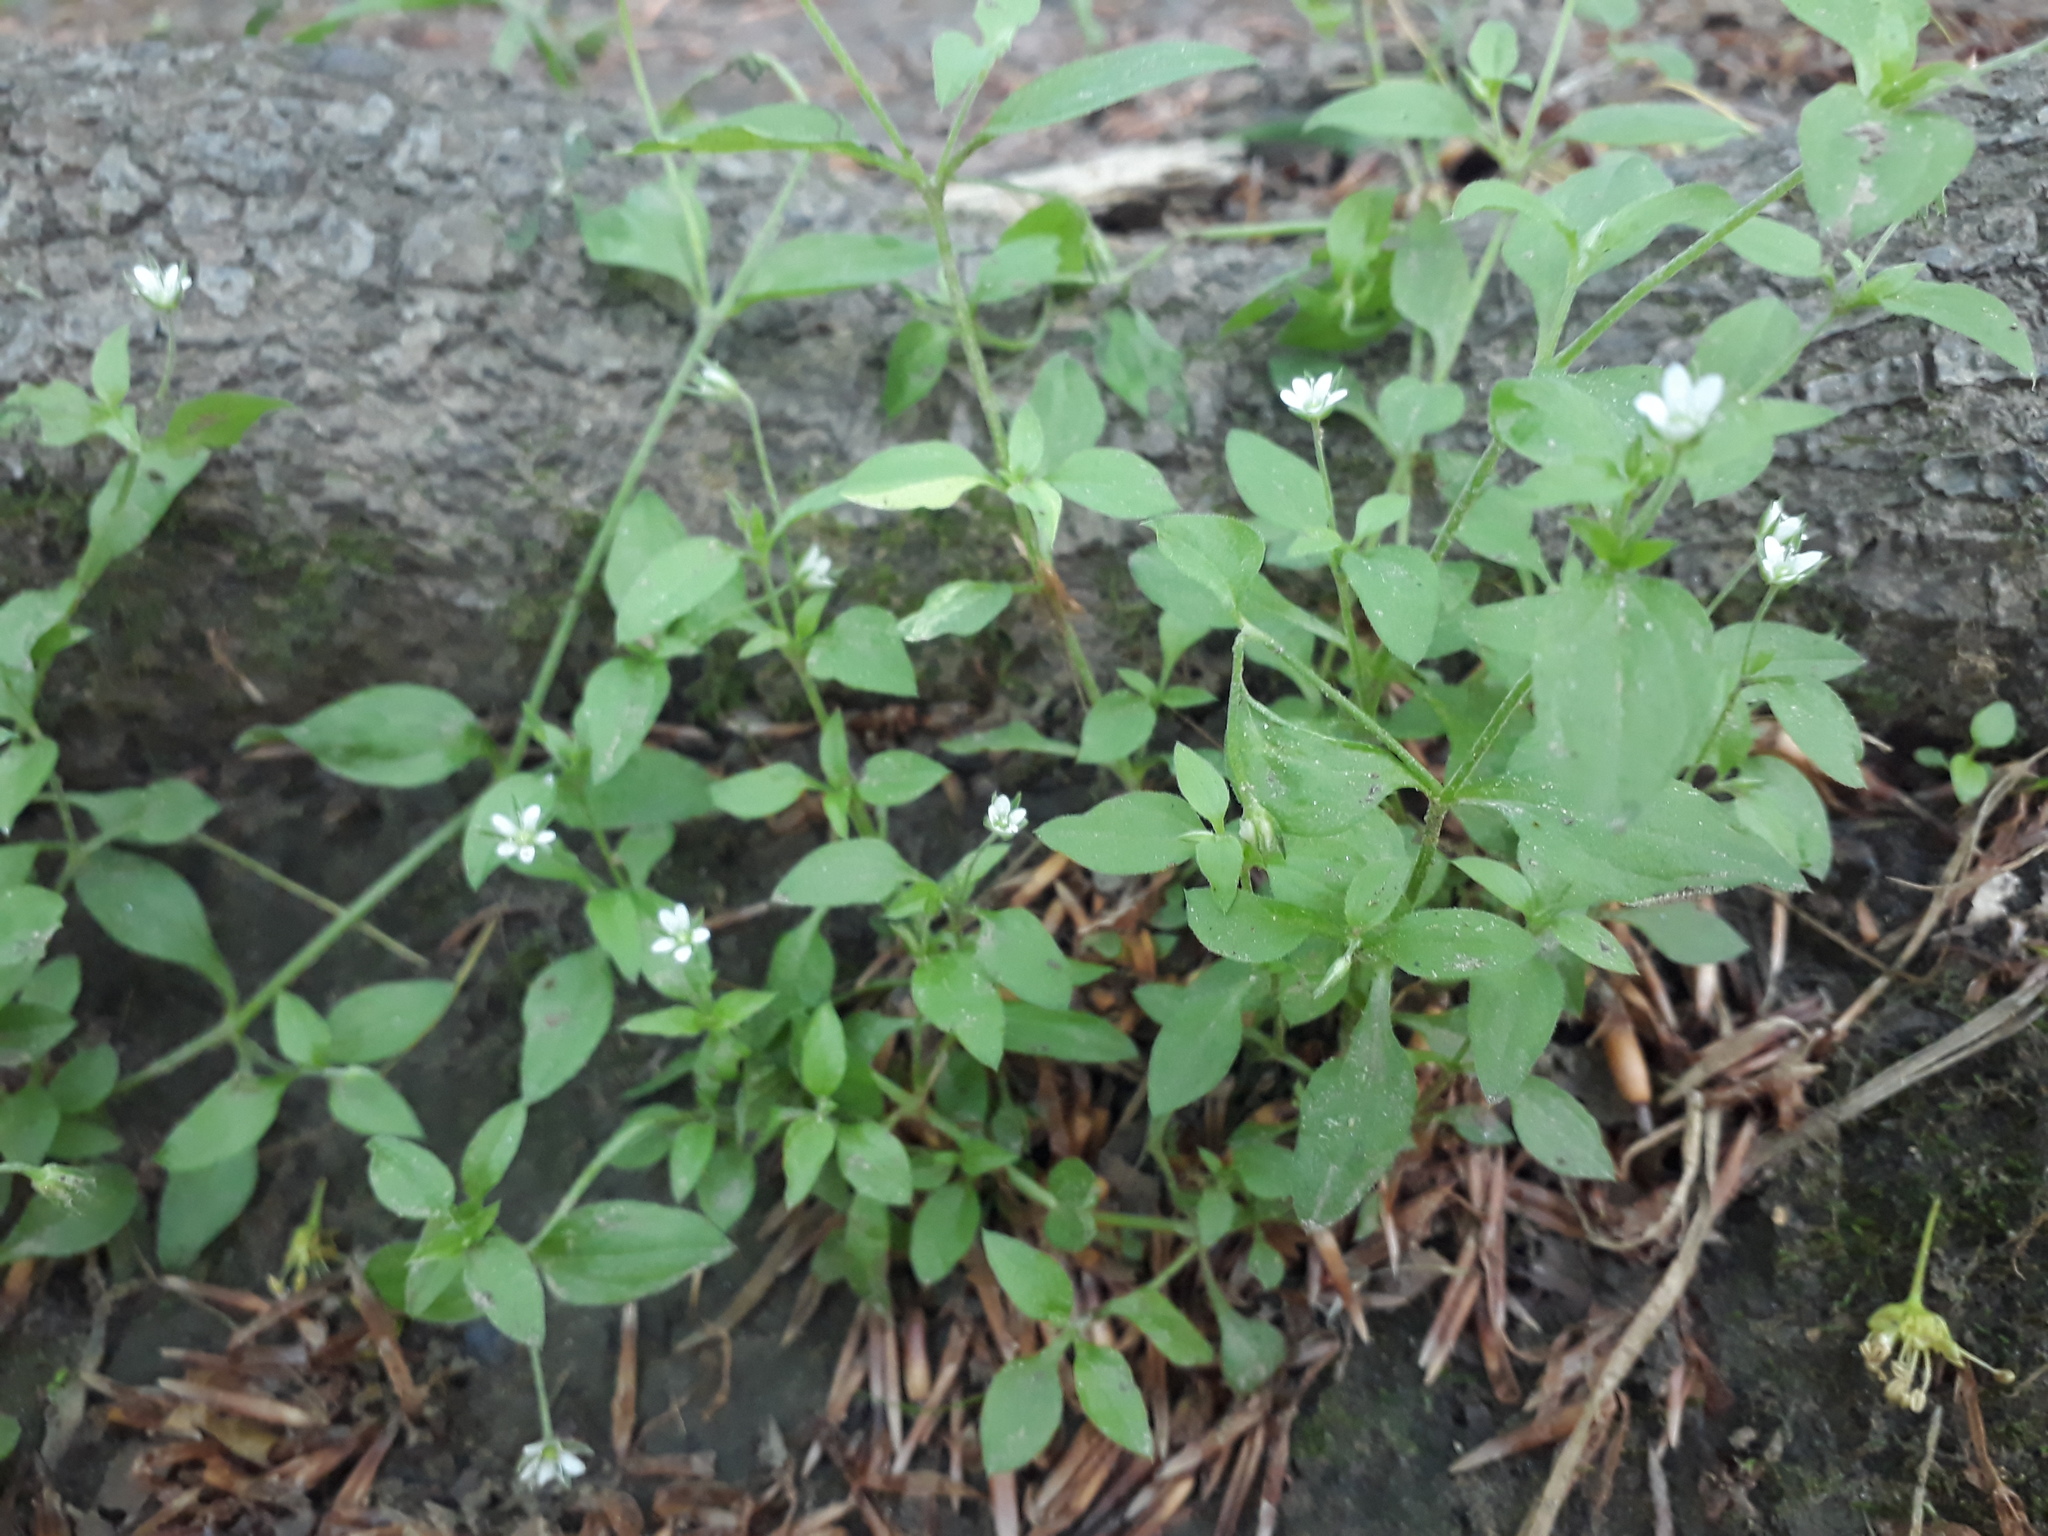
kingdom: Plantae
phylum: Tracheophyta
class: Magnoliopsida
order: Caryophyllales
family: Caryophyllaceae
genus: Moehringia
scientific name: Moehringia trinervia
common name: Three-nerved sandwort
